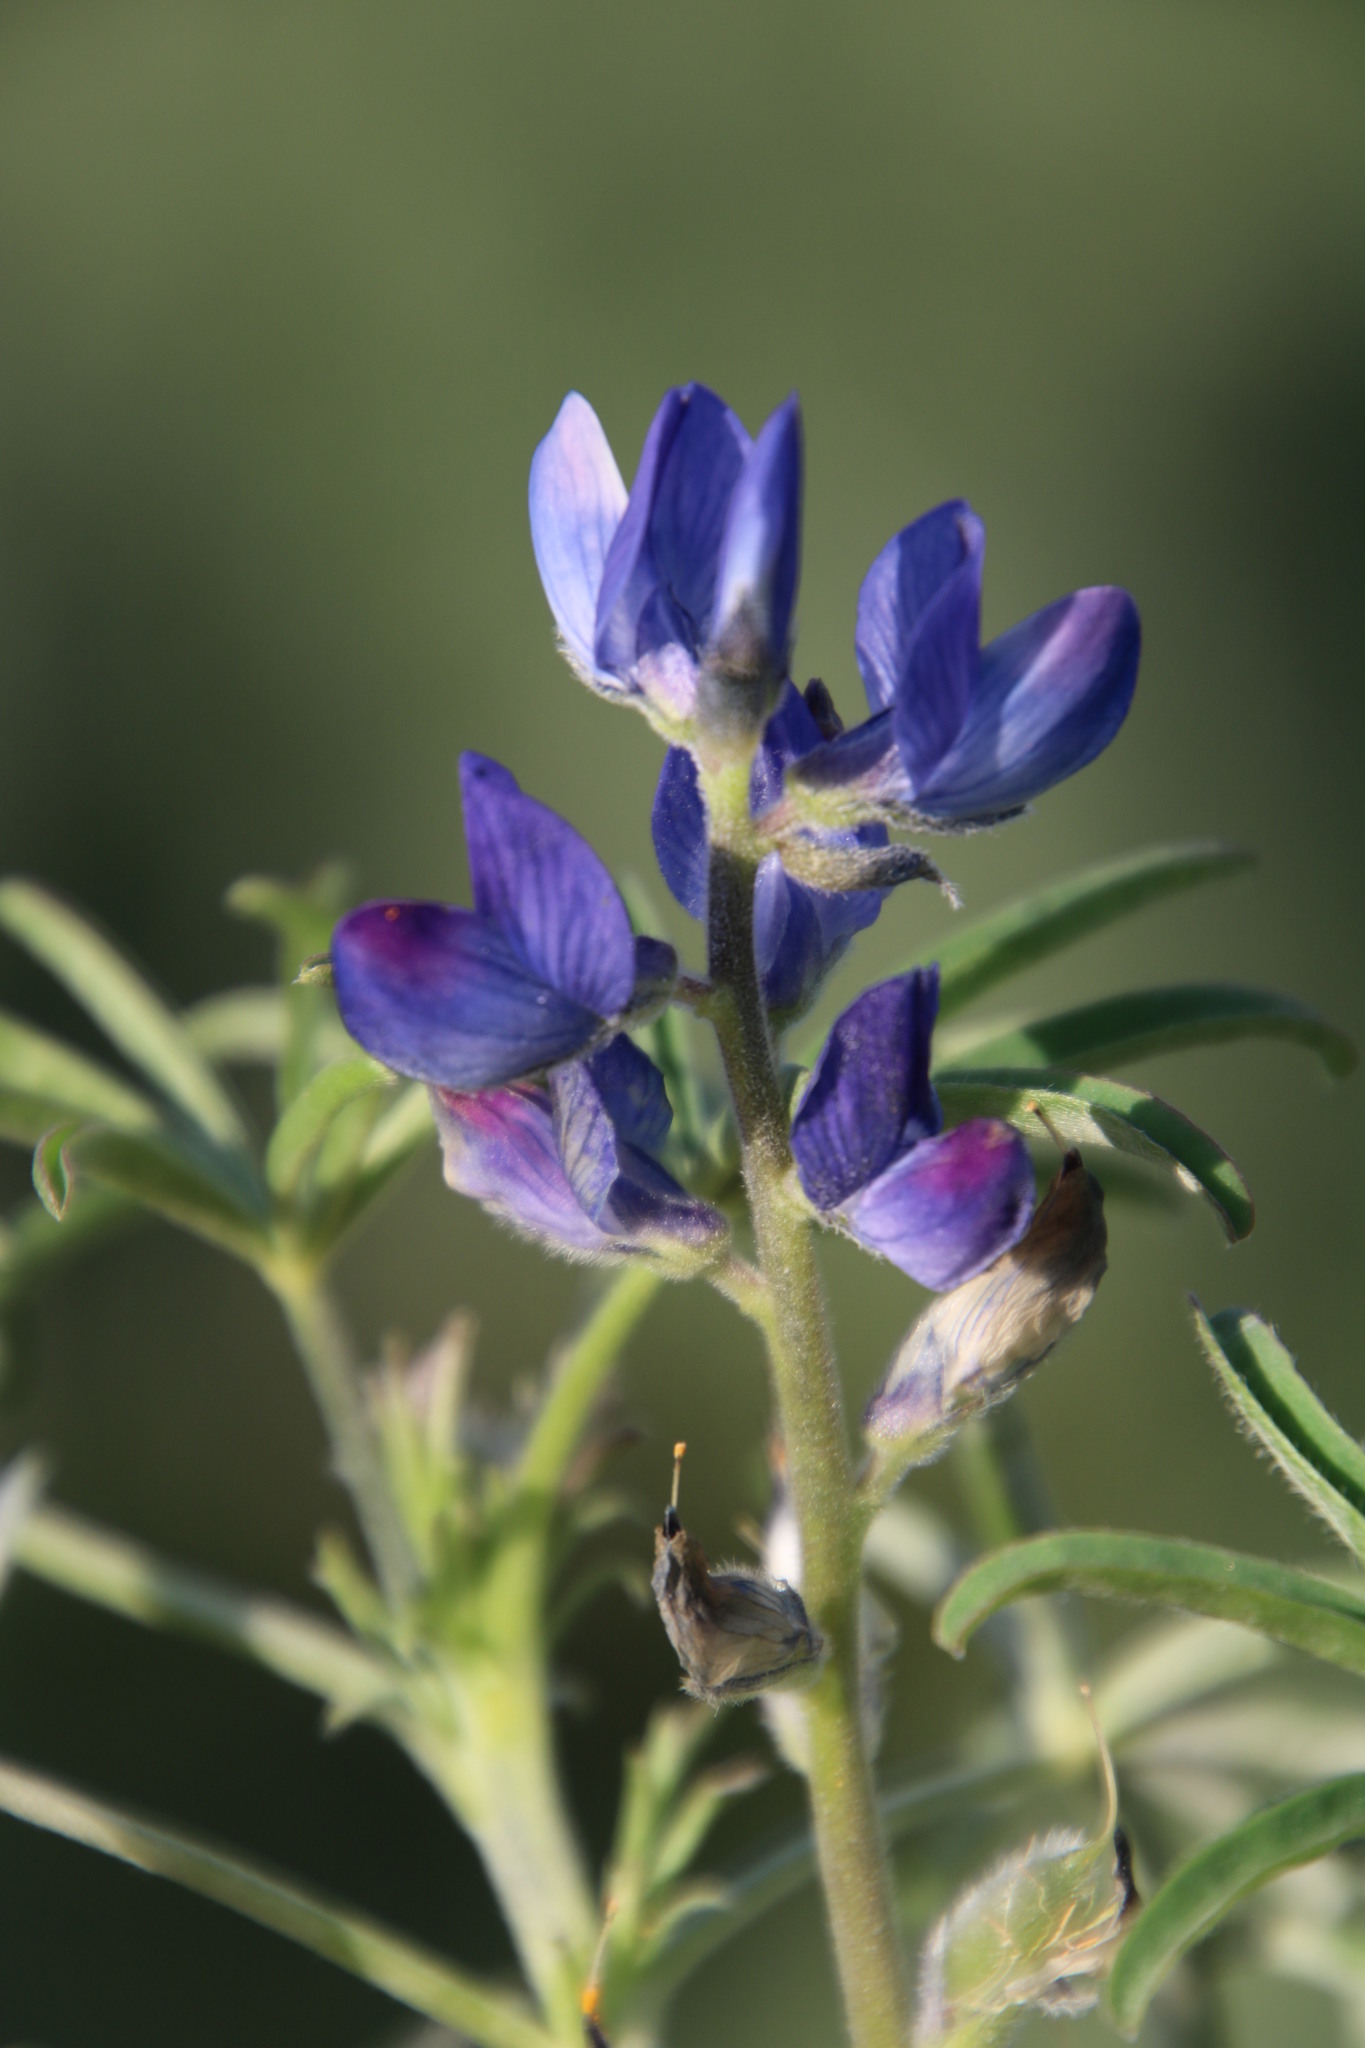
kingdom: Plantae
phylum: Tracheophyta
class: Magnoliopsida
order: Fabales
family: Fabaceae
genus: Lupinus
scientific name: Lupinus cosentinii
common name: Hairy blue lupin
